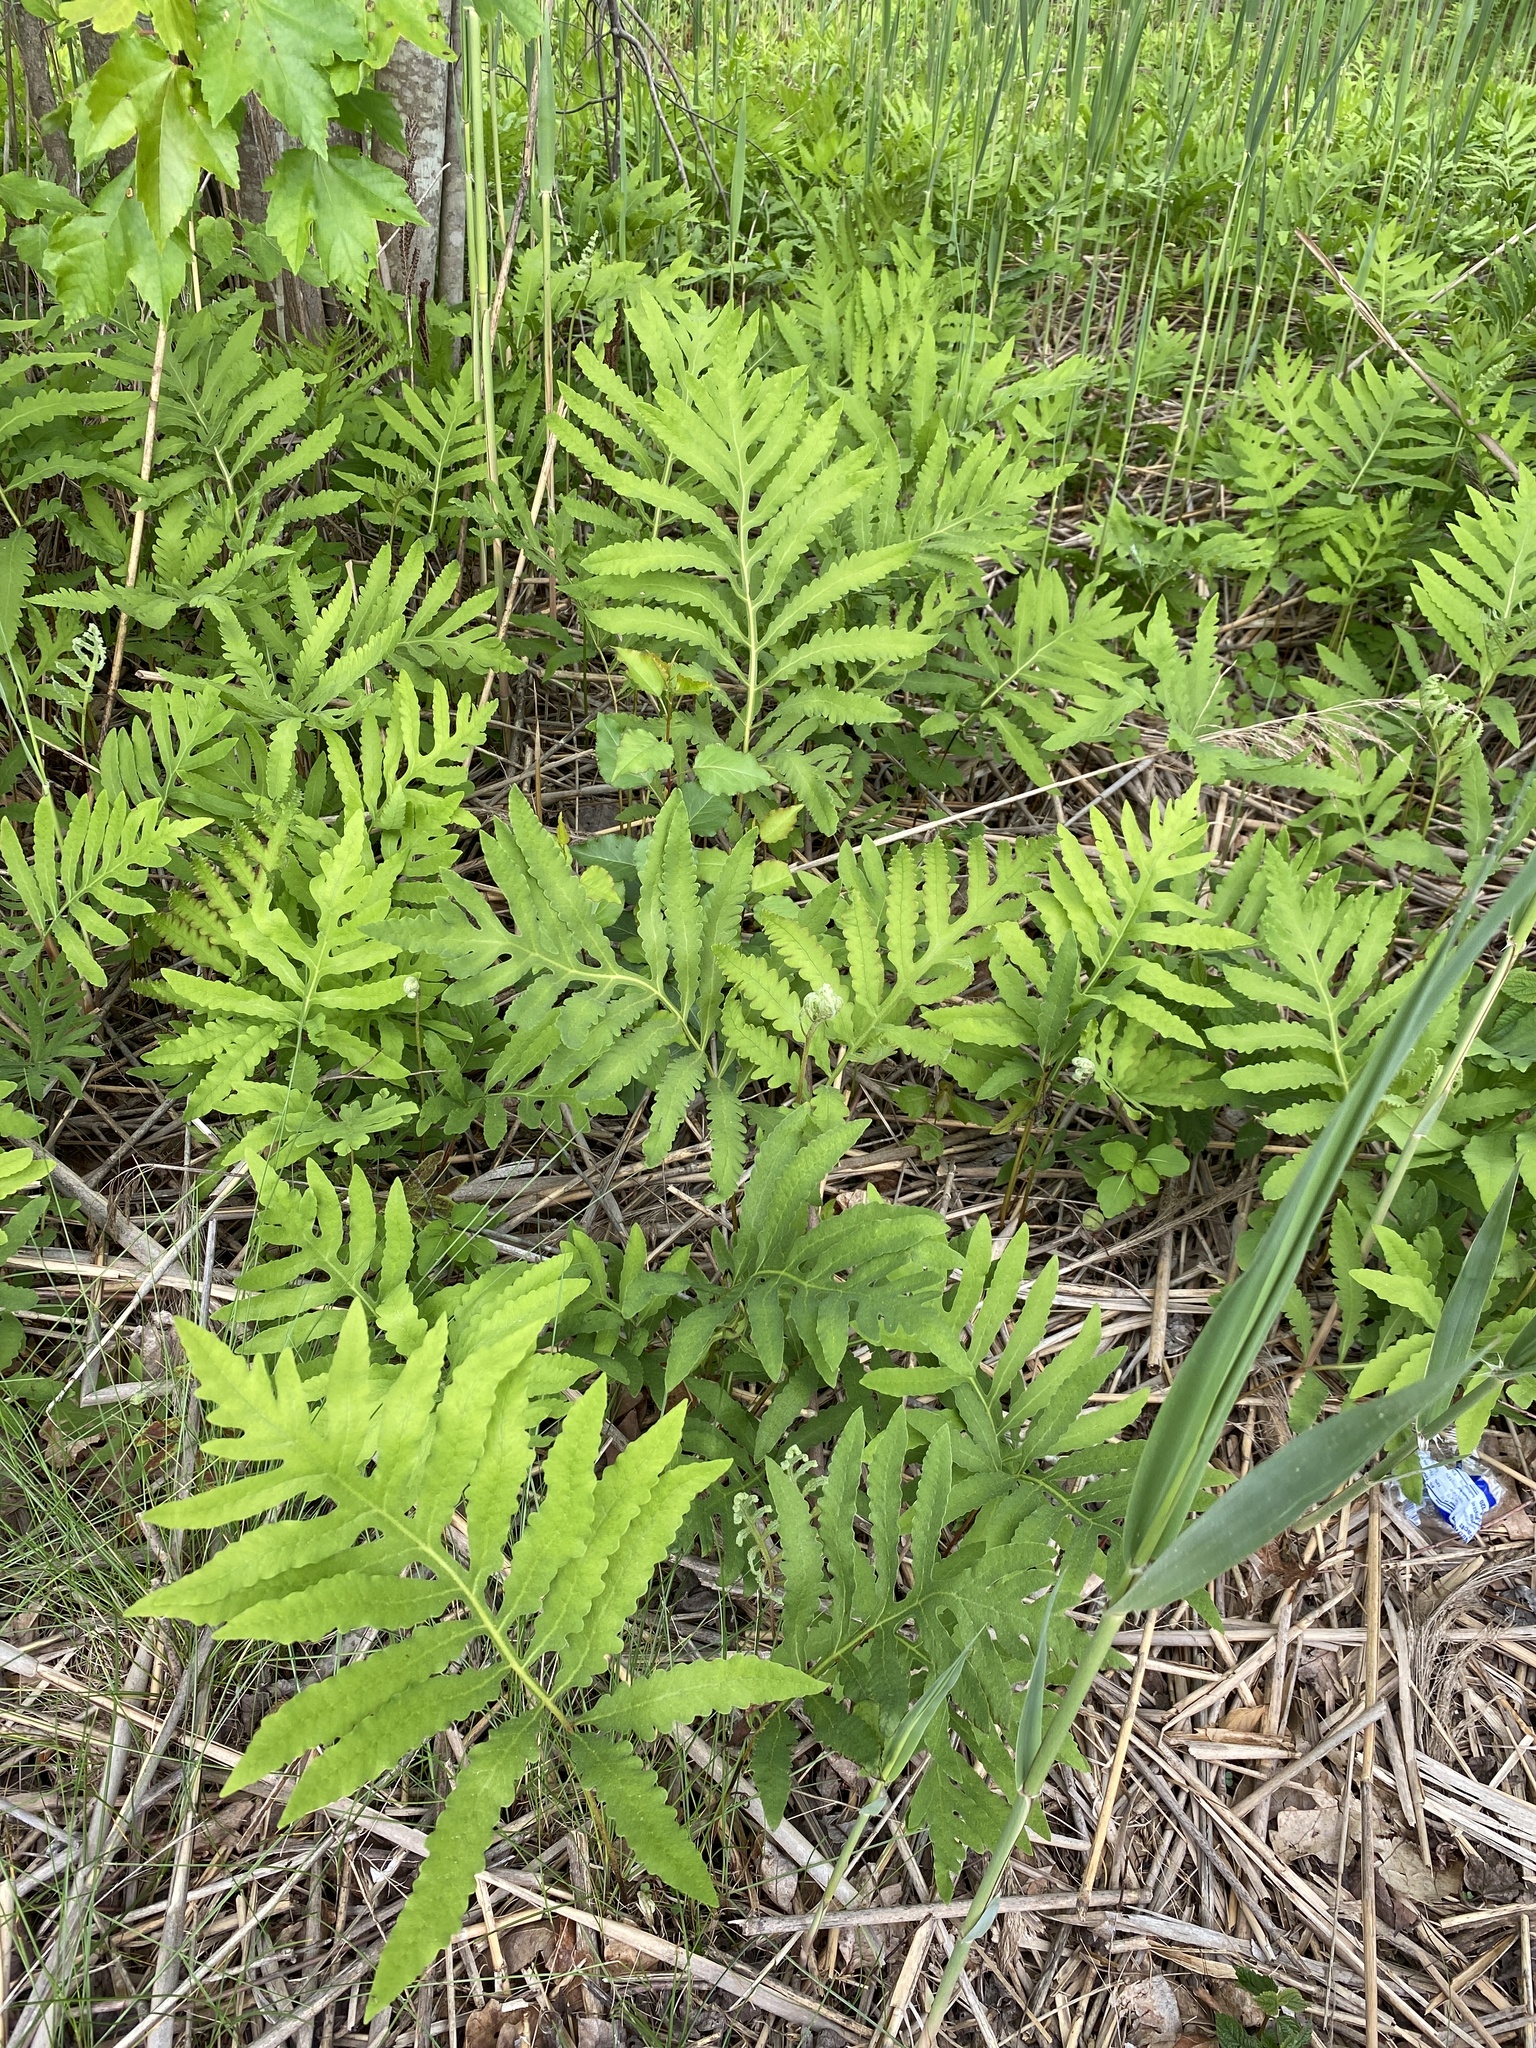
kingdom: Plantae
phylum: Tracheophyta
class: Polypodiopsida
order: Polypodiales
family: Onocleaceae
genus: Onoclea
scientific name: Onoclea sensibilis
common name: Sensitive fern
